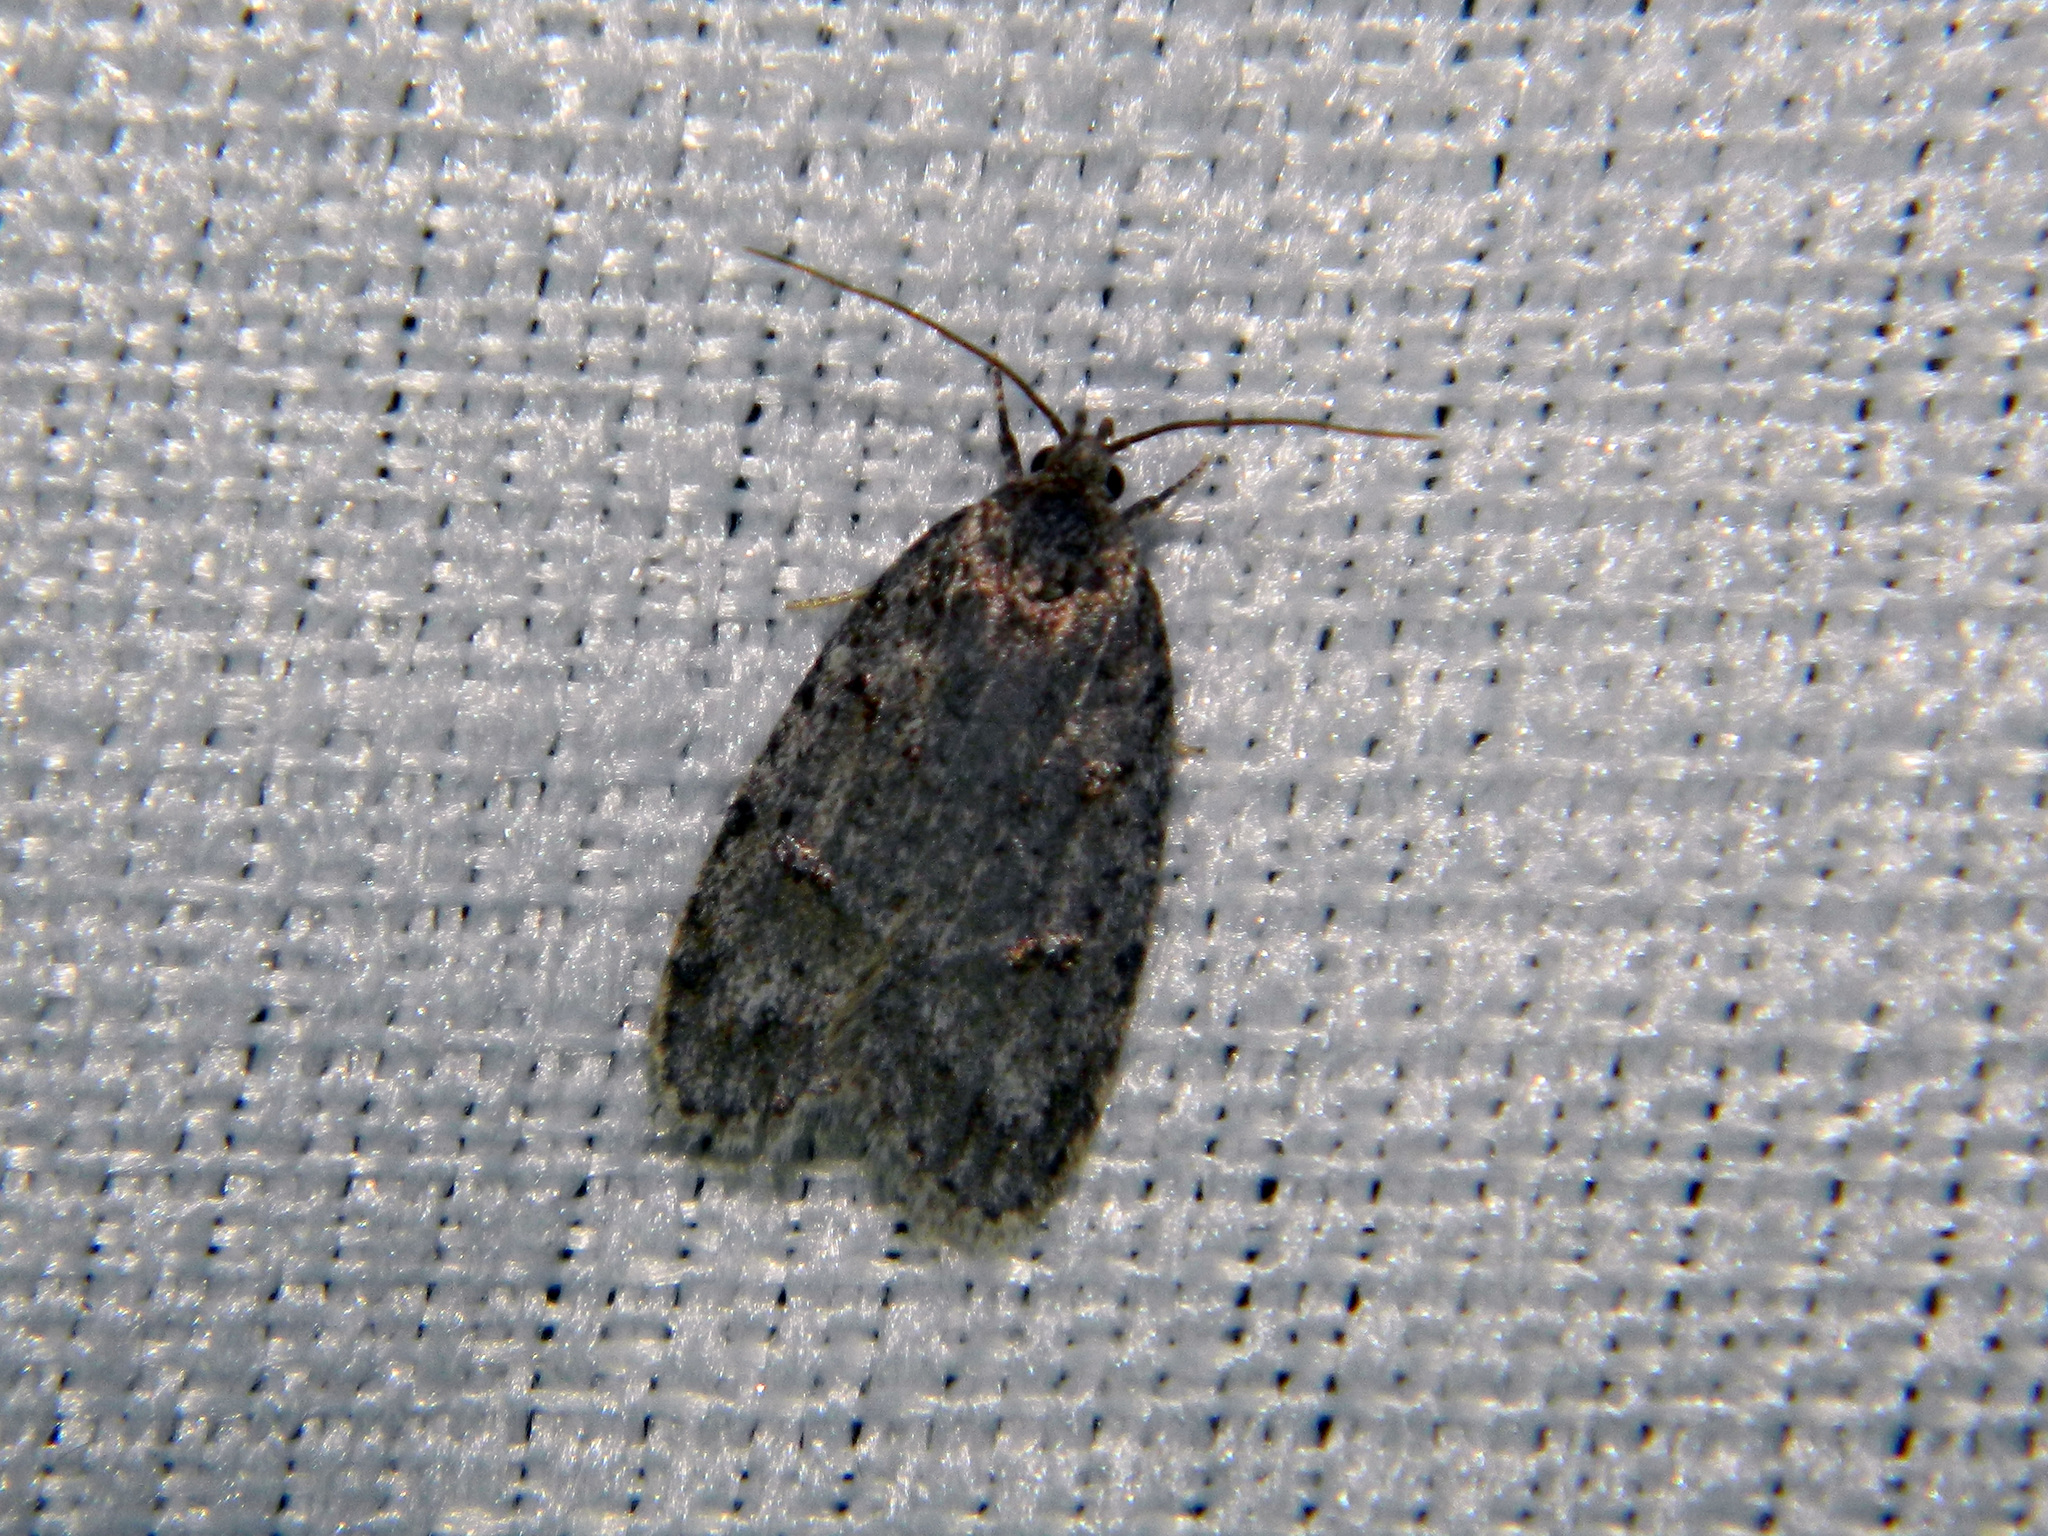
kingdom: Animalia
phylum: Arthropoda
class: Insecta
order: Lepidoptera
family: Depressariidae
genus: Bibarrambla
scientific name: Bibarrambla allenella
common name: Bog bibarrambla moth
